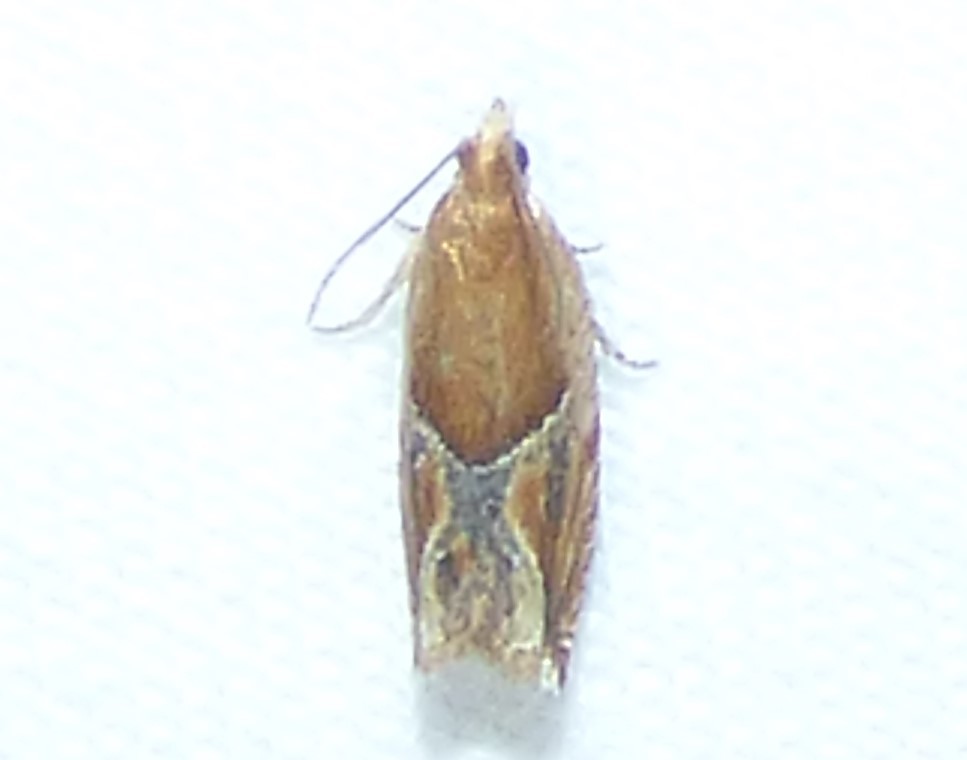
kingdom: Animalia
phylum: Arthropoda
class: Insecta
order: Lepidoptera
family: Tortricidae
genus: Ancylis
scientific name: Ancylis comptana
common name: Little roller
